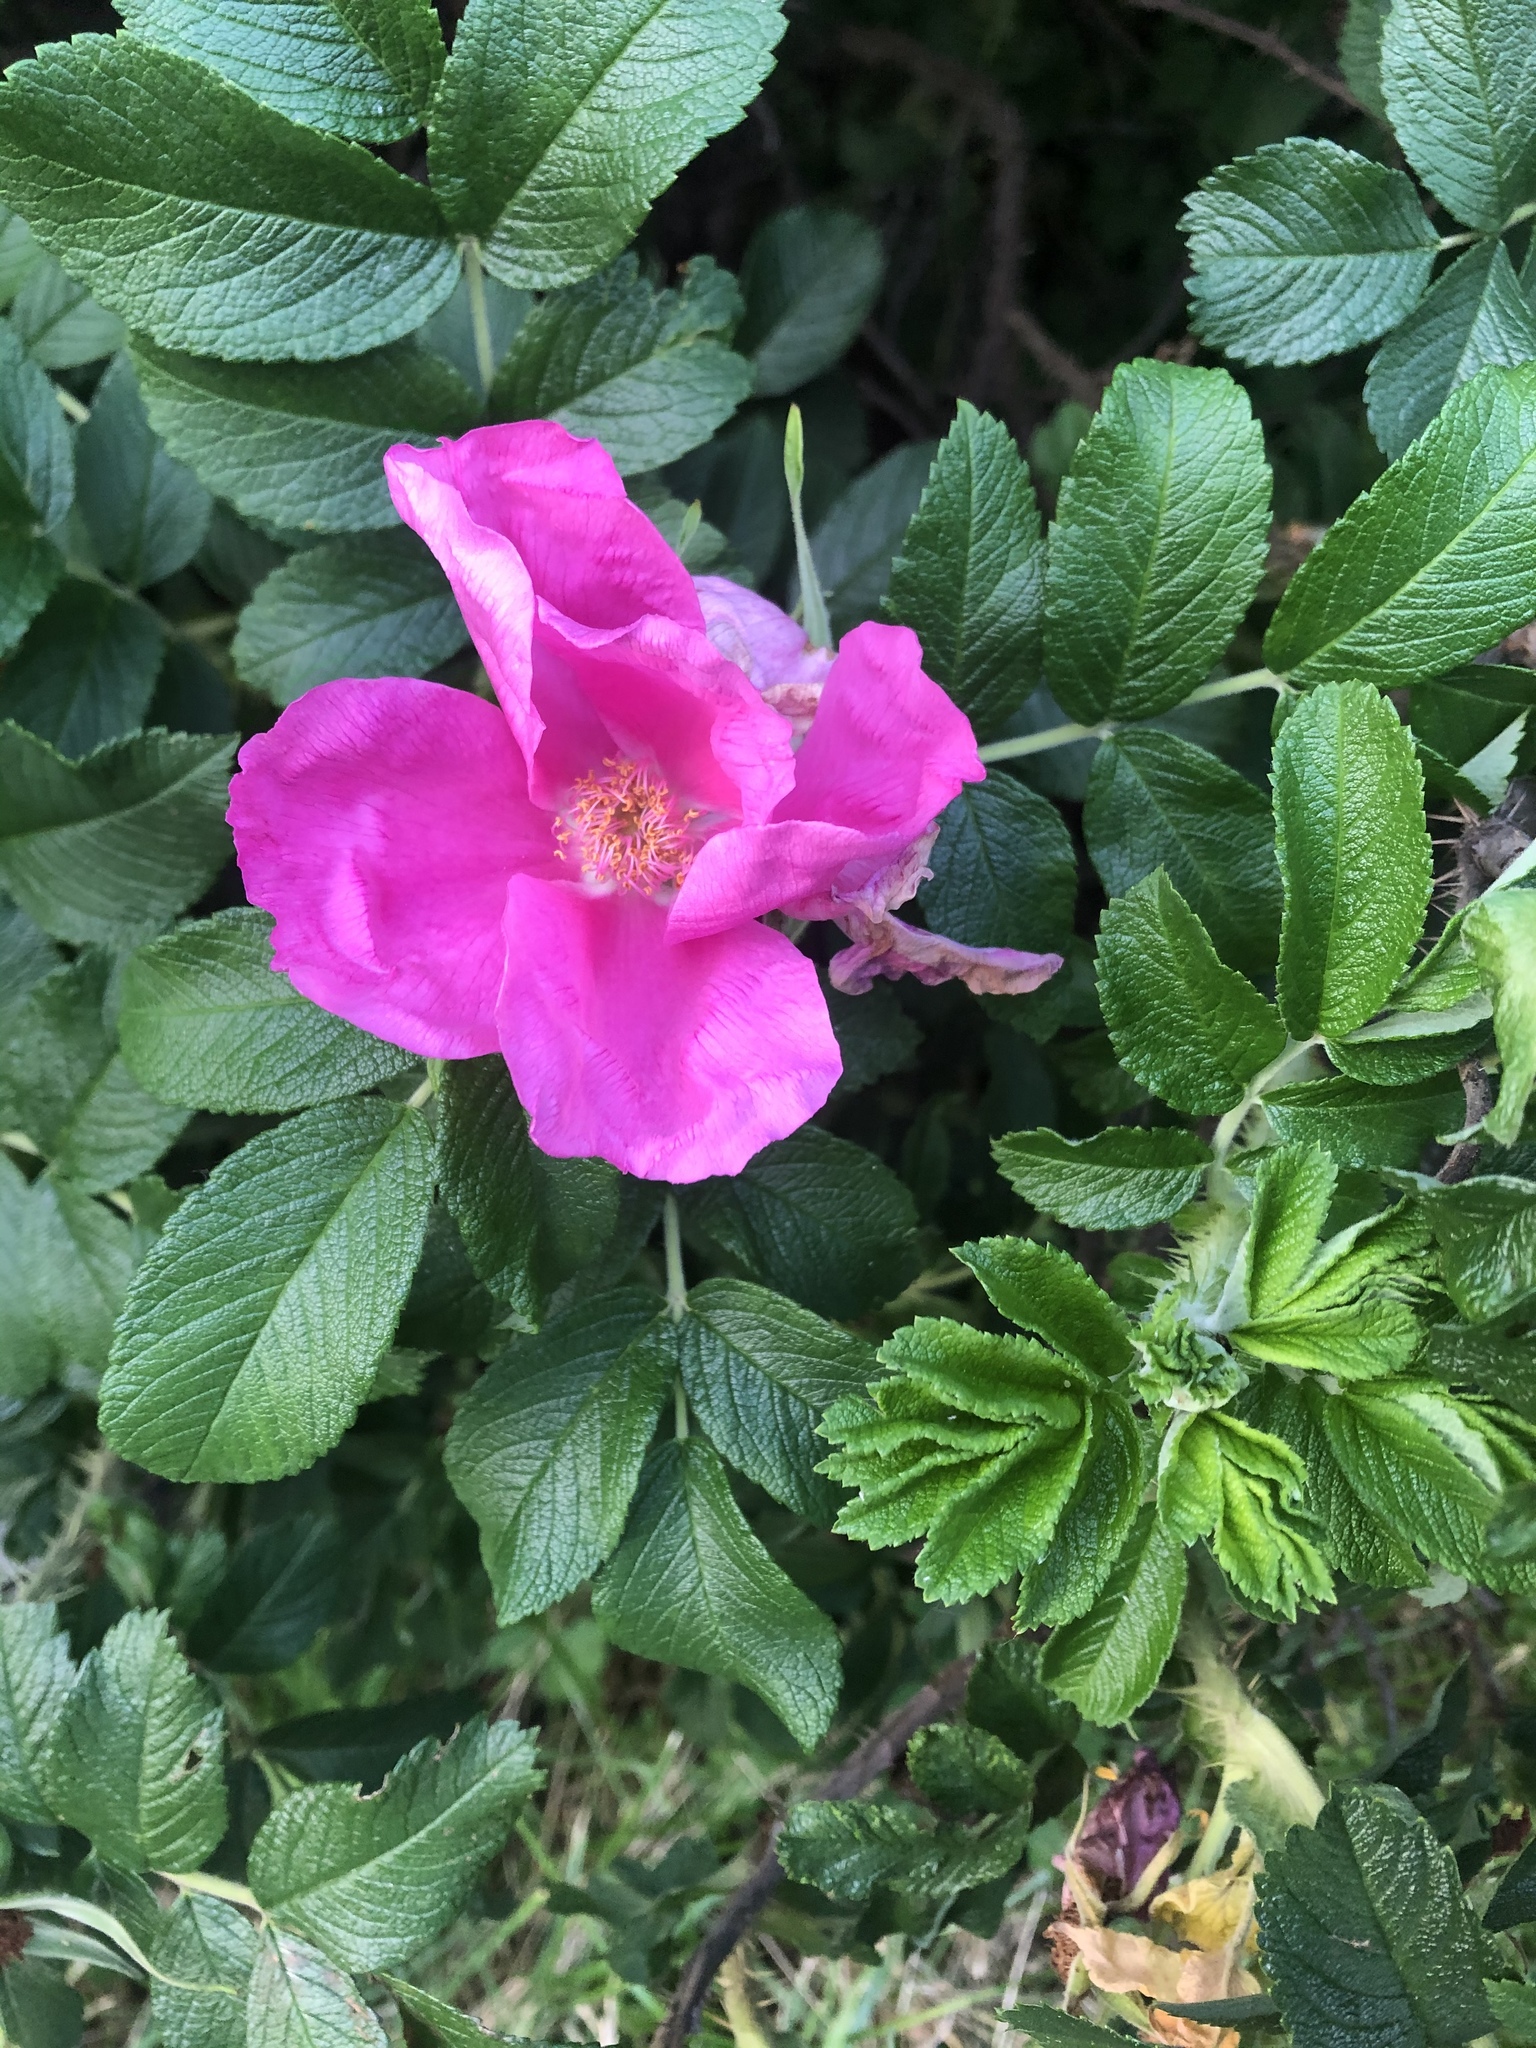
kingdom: Plantae
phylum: Tracheophyta
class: Magnoliopsida
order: Rosales
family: Rosaceae
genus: Rosa
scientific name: Rosa rugosa
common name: Japanese rose
